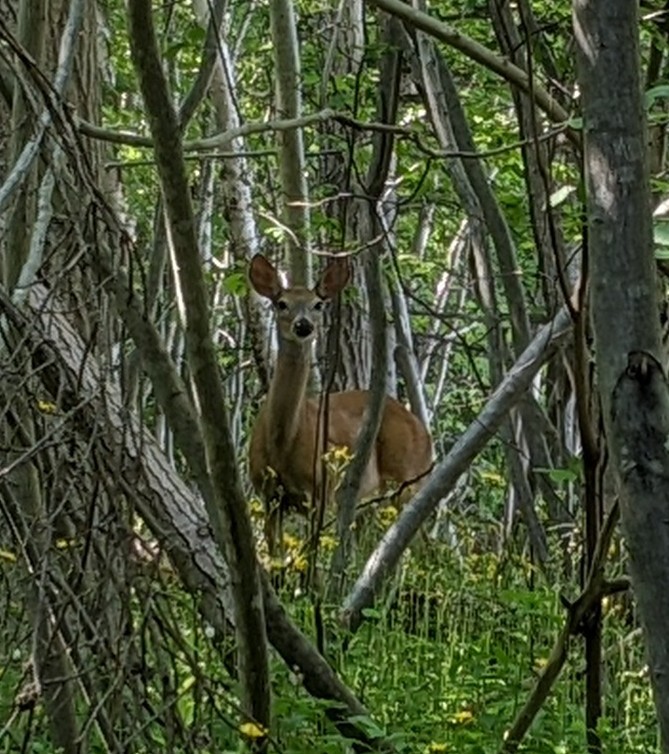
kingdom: Animalia
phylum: Chordata
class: Mammalia
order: Artiodactyla
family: Cervidae
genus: Odocoileus
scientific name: Odocoileus virginianus
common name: White-tailed deer
